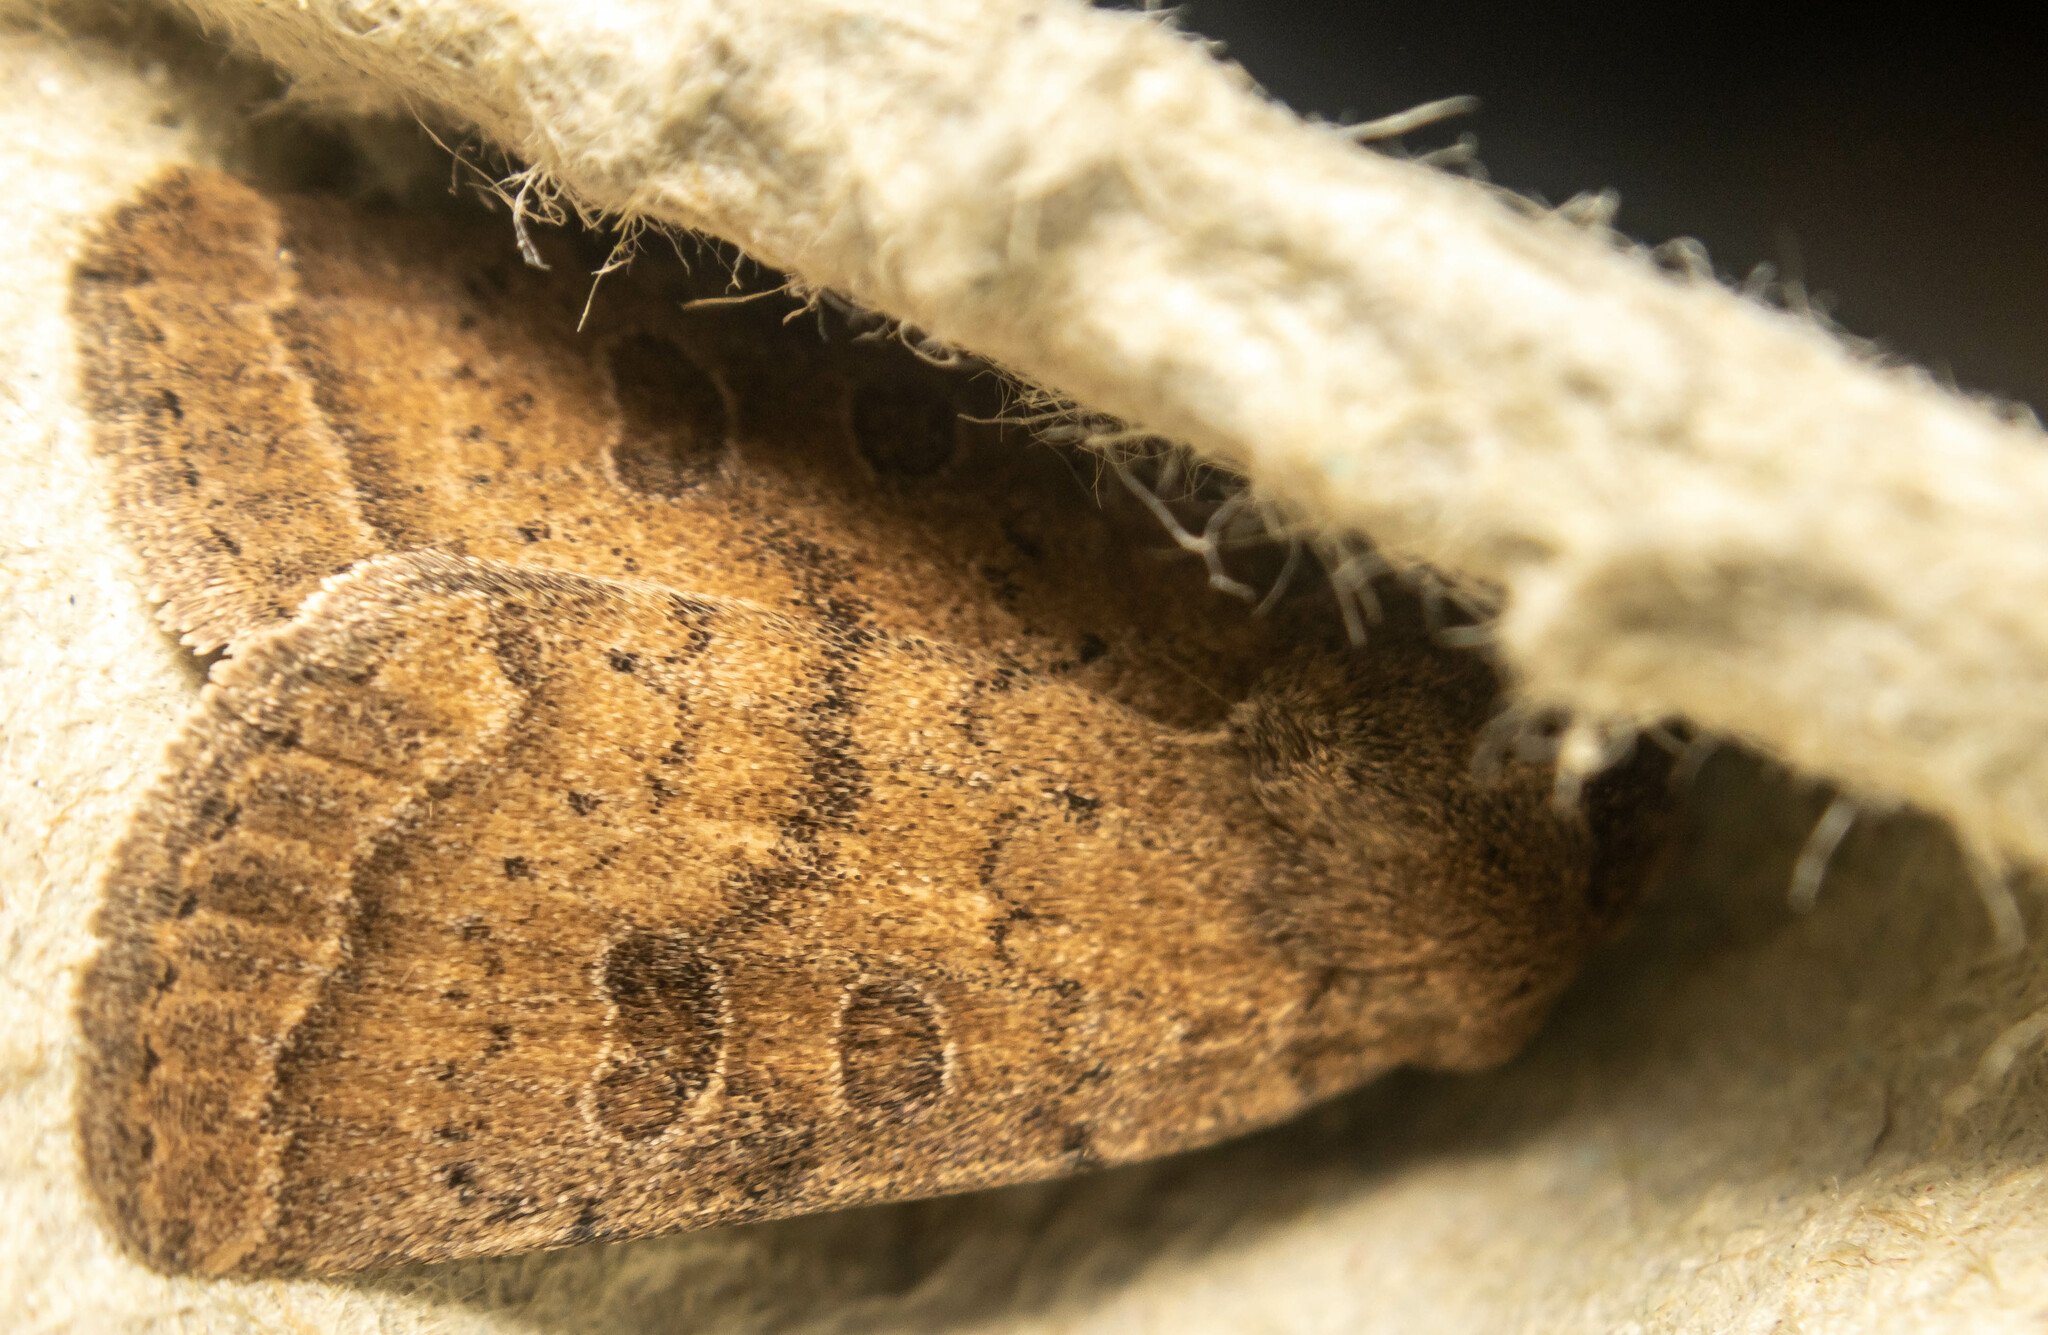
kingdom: Animalia
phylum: Arthropoda
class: Insecta
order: Lepidoptera
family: Noctuidae
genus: Hoplodrina
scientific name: Hoplodrina octogenaria
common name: Uncertain
